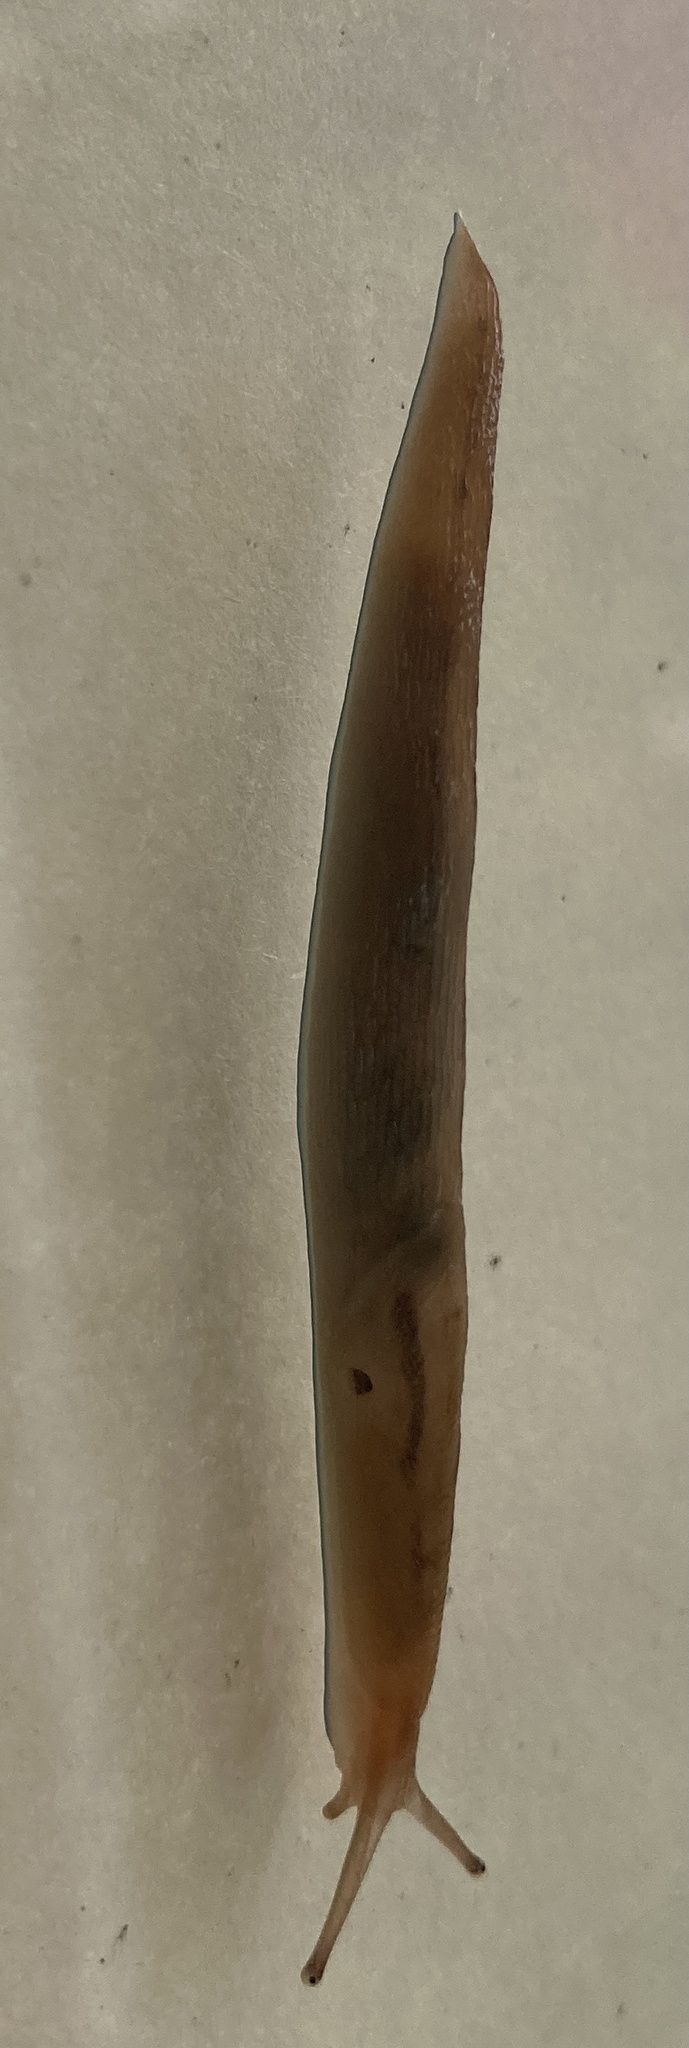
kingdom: Animalia
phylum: Mollusca
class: Gastropoda
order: Stylommatophora
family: Limacidae
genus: Ambigolimax
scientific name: Ambigolimax
